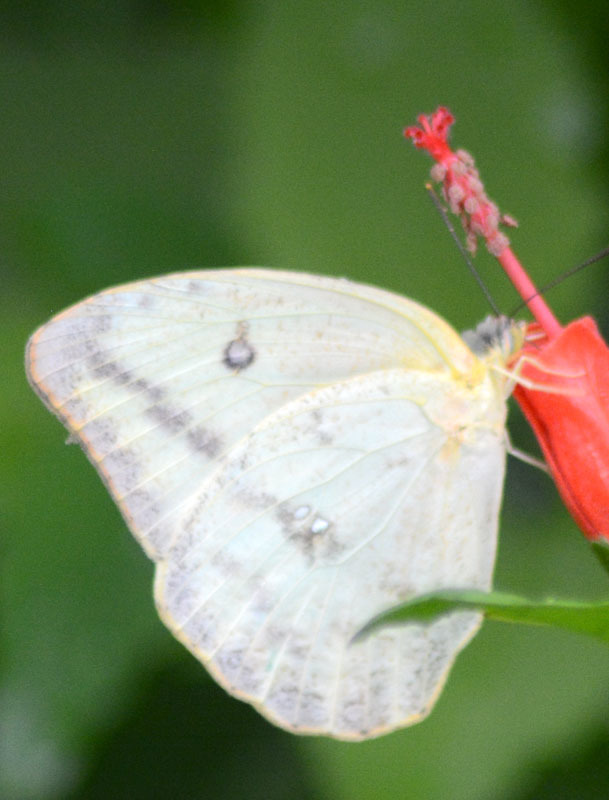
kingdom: Animalia
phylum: Arthropoda
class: Insecta
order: Lepidoptera
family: Pieridae
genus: Phoebis
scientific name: Phoebis agarithe
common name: Large orange sulphur
